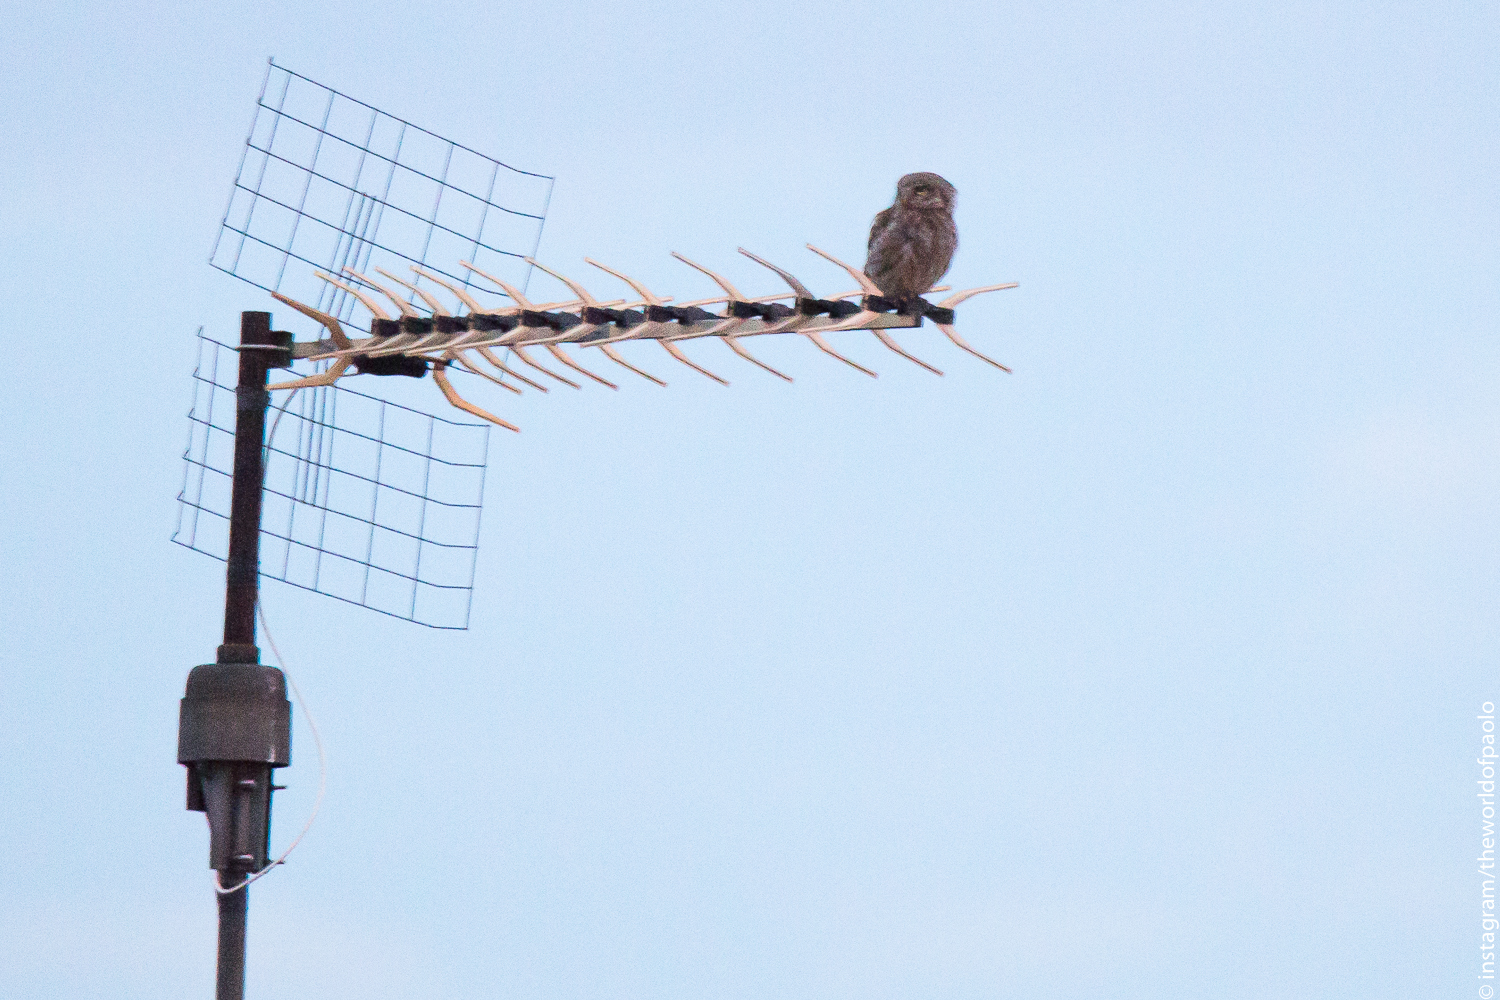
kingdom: Animalia
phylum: Chordata
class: Aves
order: Strigiformes
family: Strigidae
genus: Athene
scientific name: Athene noctua
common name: Little owl
